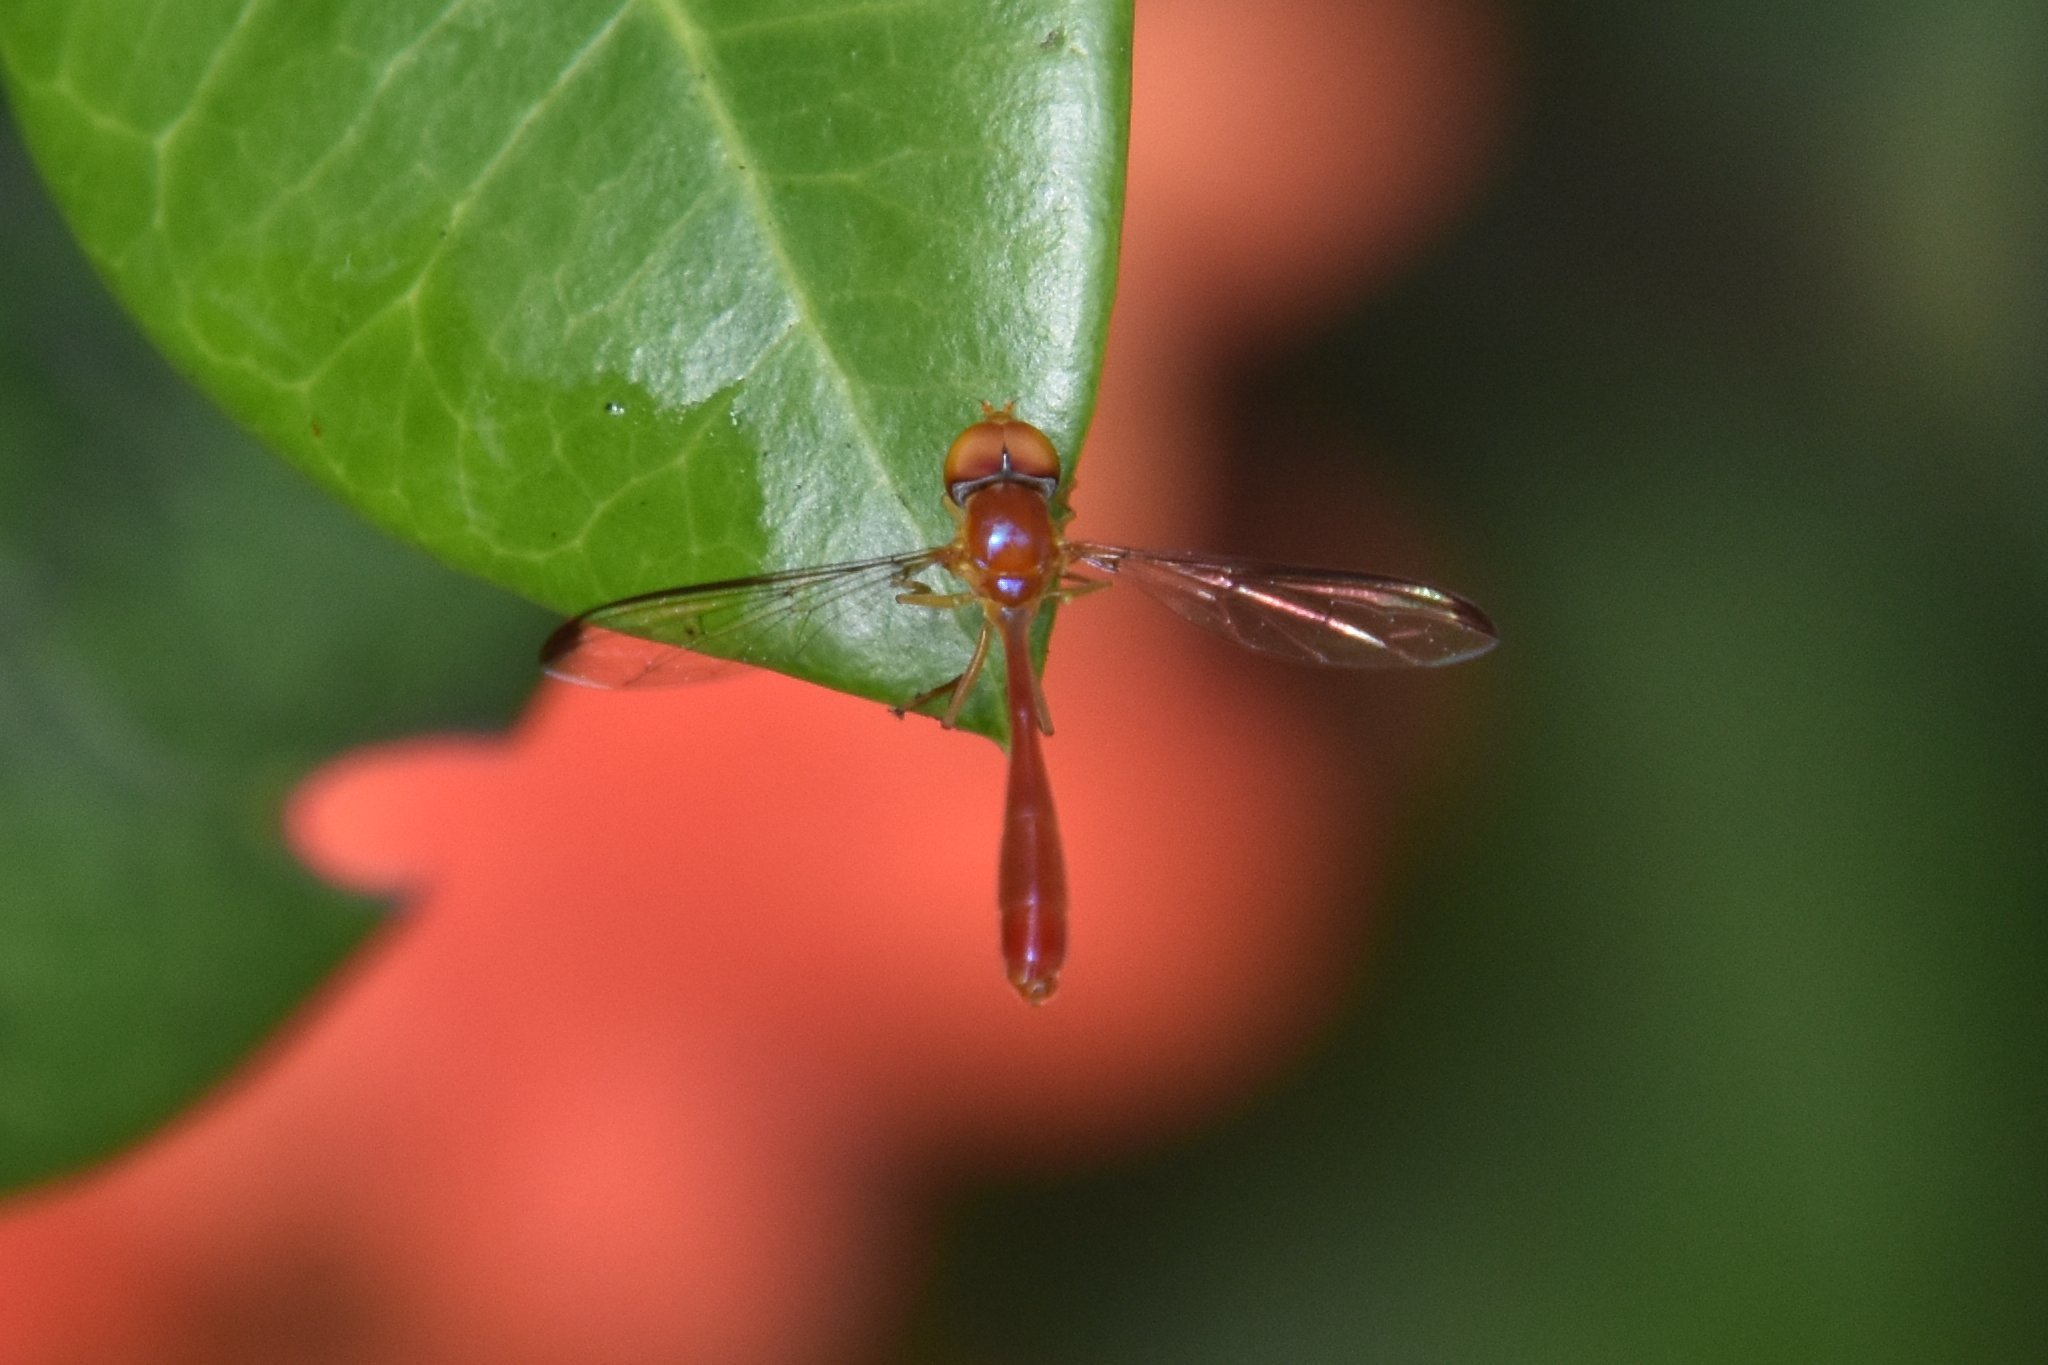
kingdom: Animalia
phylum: Arthropoda
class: Insecta
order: Diptera
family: Syrphidae
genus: Victoriana
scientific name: Victoriana parvicornis
